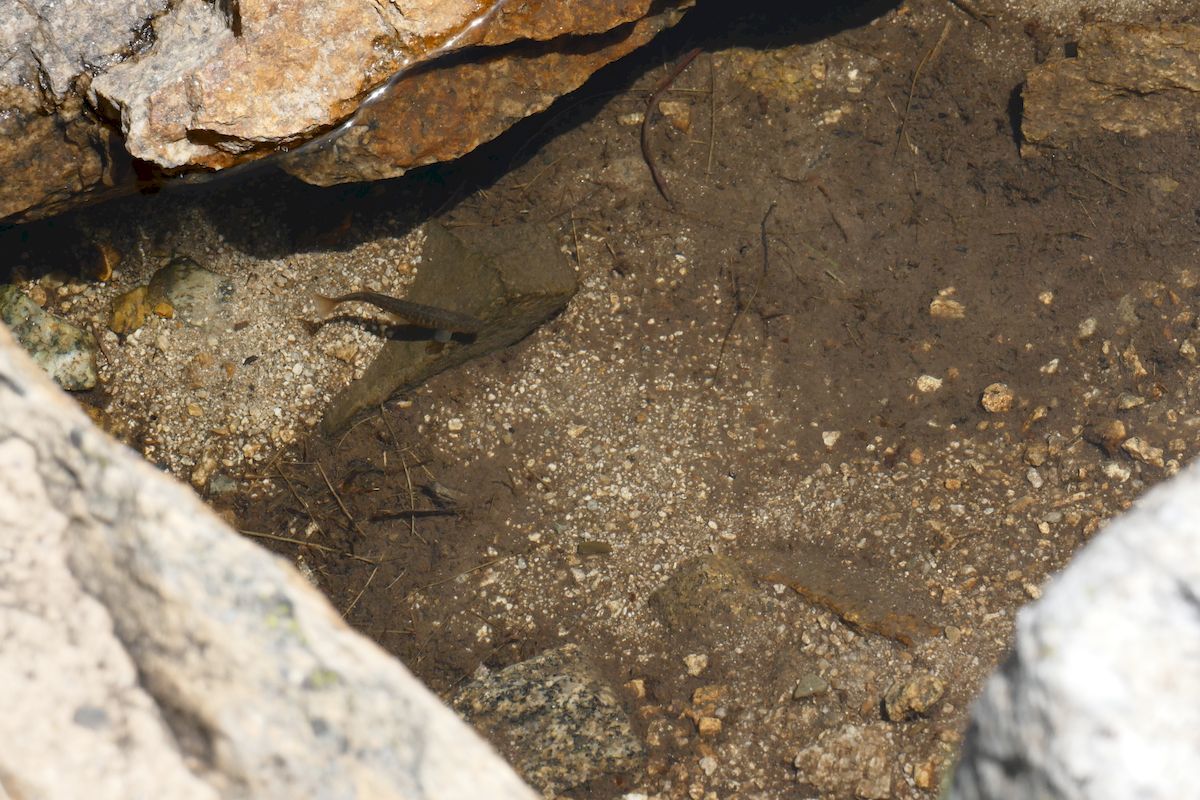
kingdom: Animalia
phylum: Chordata
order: Osmeriformes
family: Galaxiidae
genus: Galaxias
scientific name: Galaxias supremus
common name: Kosciuszko galaxias
